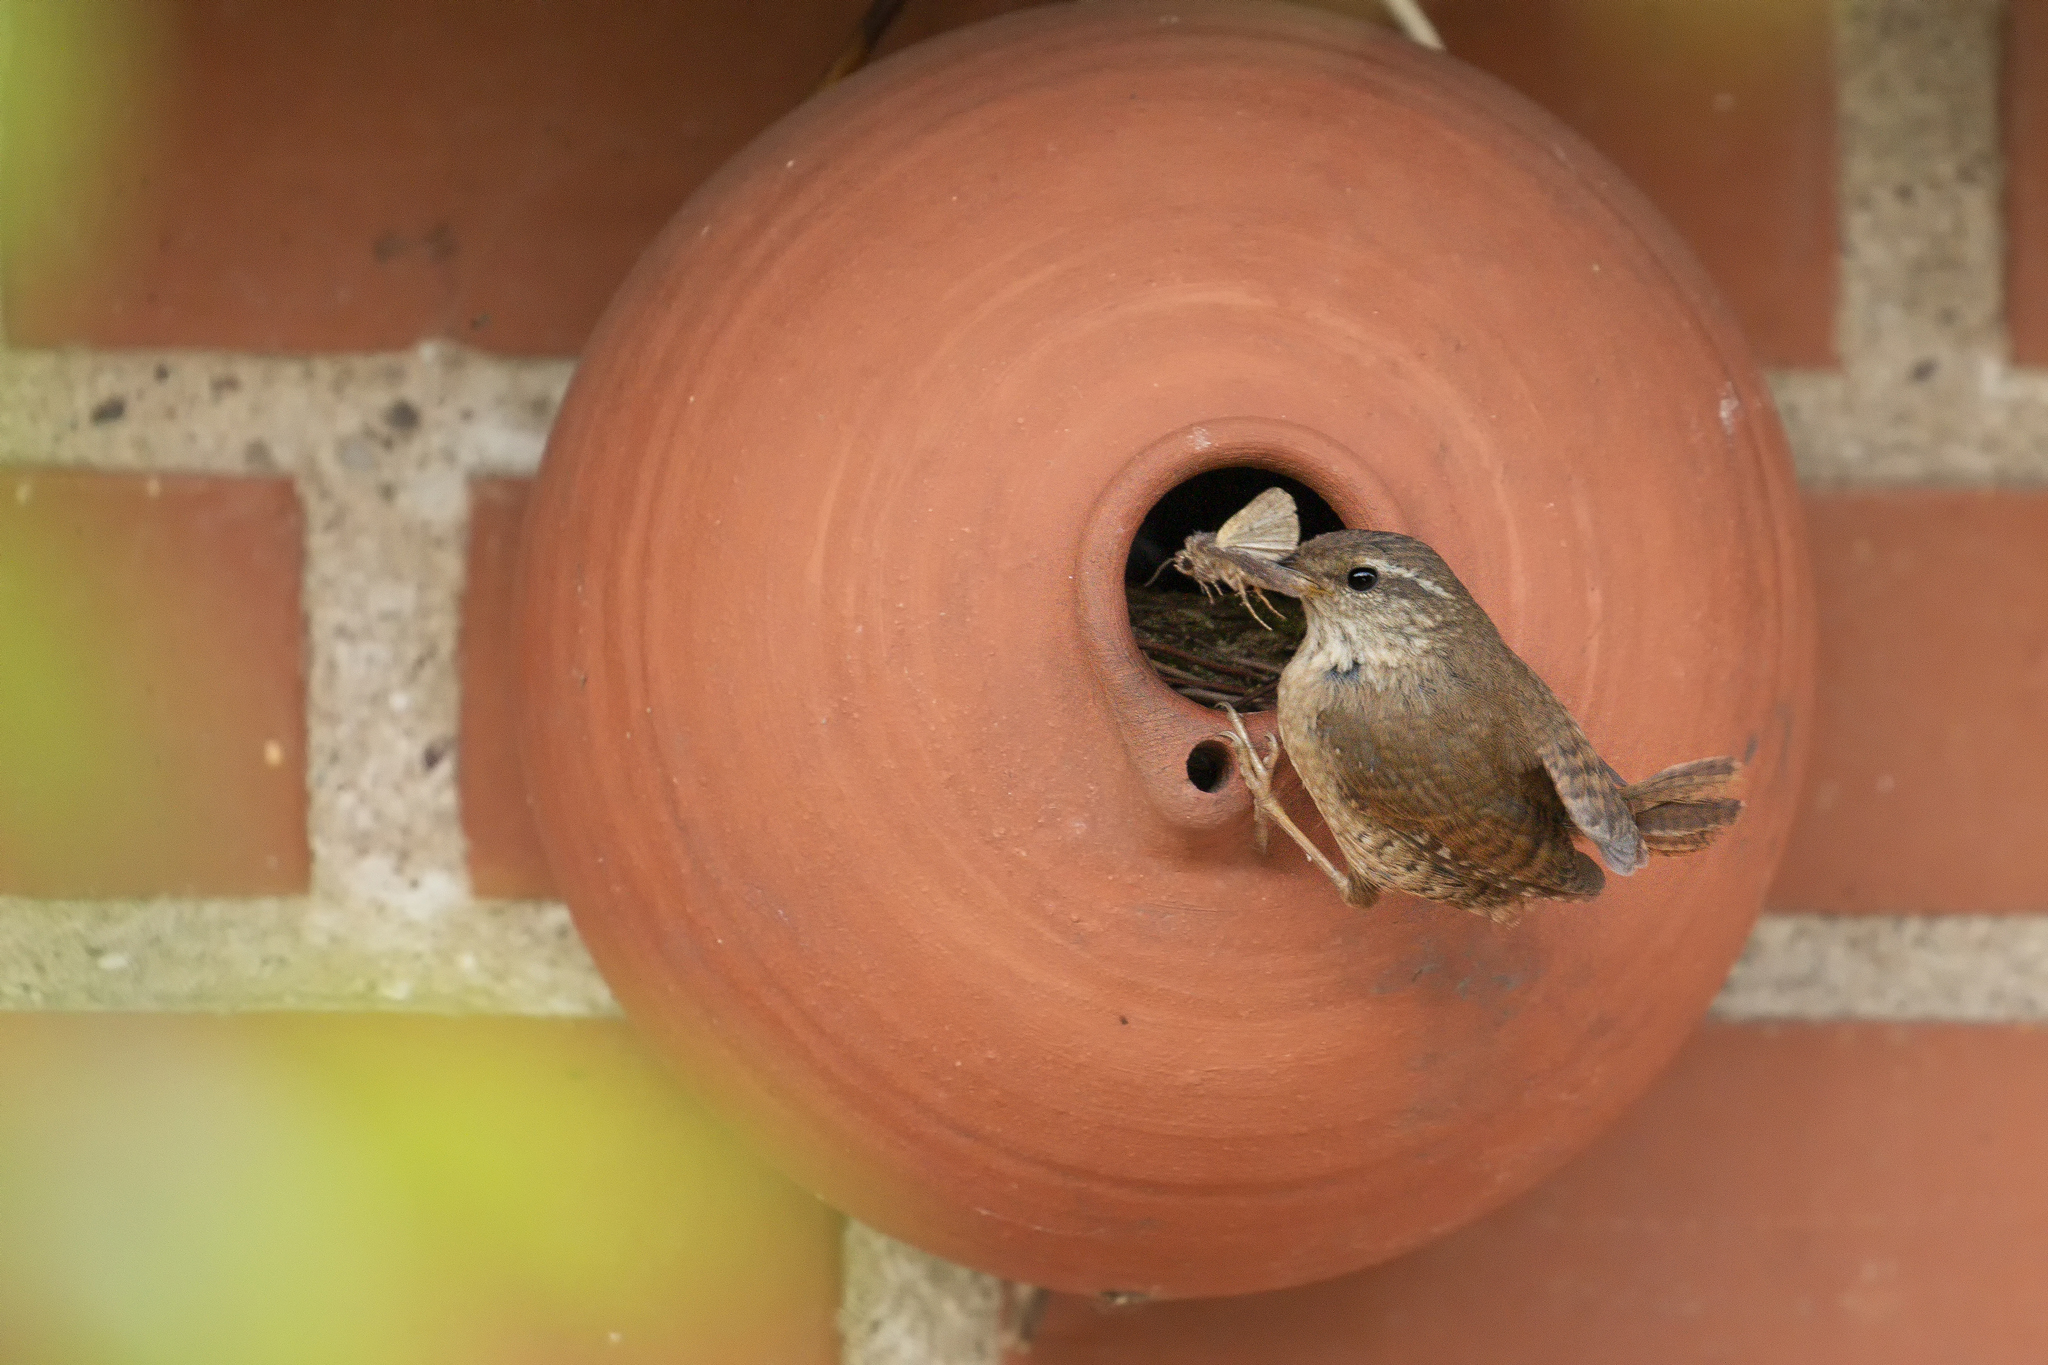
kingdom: Animalia
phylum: Chordata
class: Aves
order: Passeriformes
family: Troglodytidae
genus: Troglodytes
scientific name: Troglodytes troglodytes
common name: Eurasian wren
